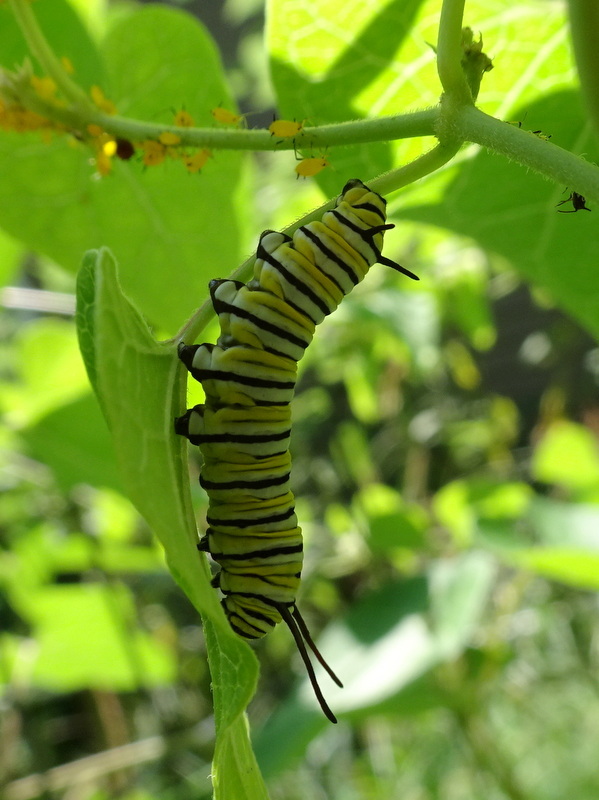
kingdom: Animalia
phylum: Arthropoda
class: Insecta
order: Lepidoptera
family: Nymphalidae
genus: Danaus
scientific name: Danaus plexippus
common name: Monarch
